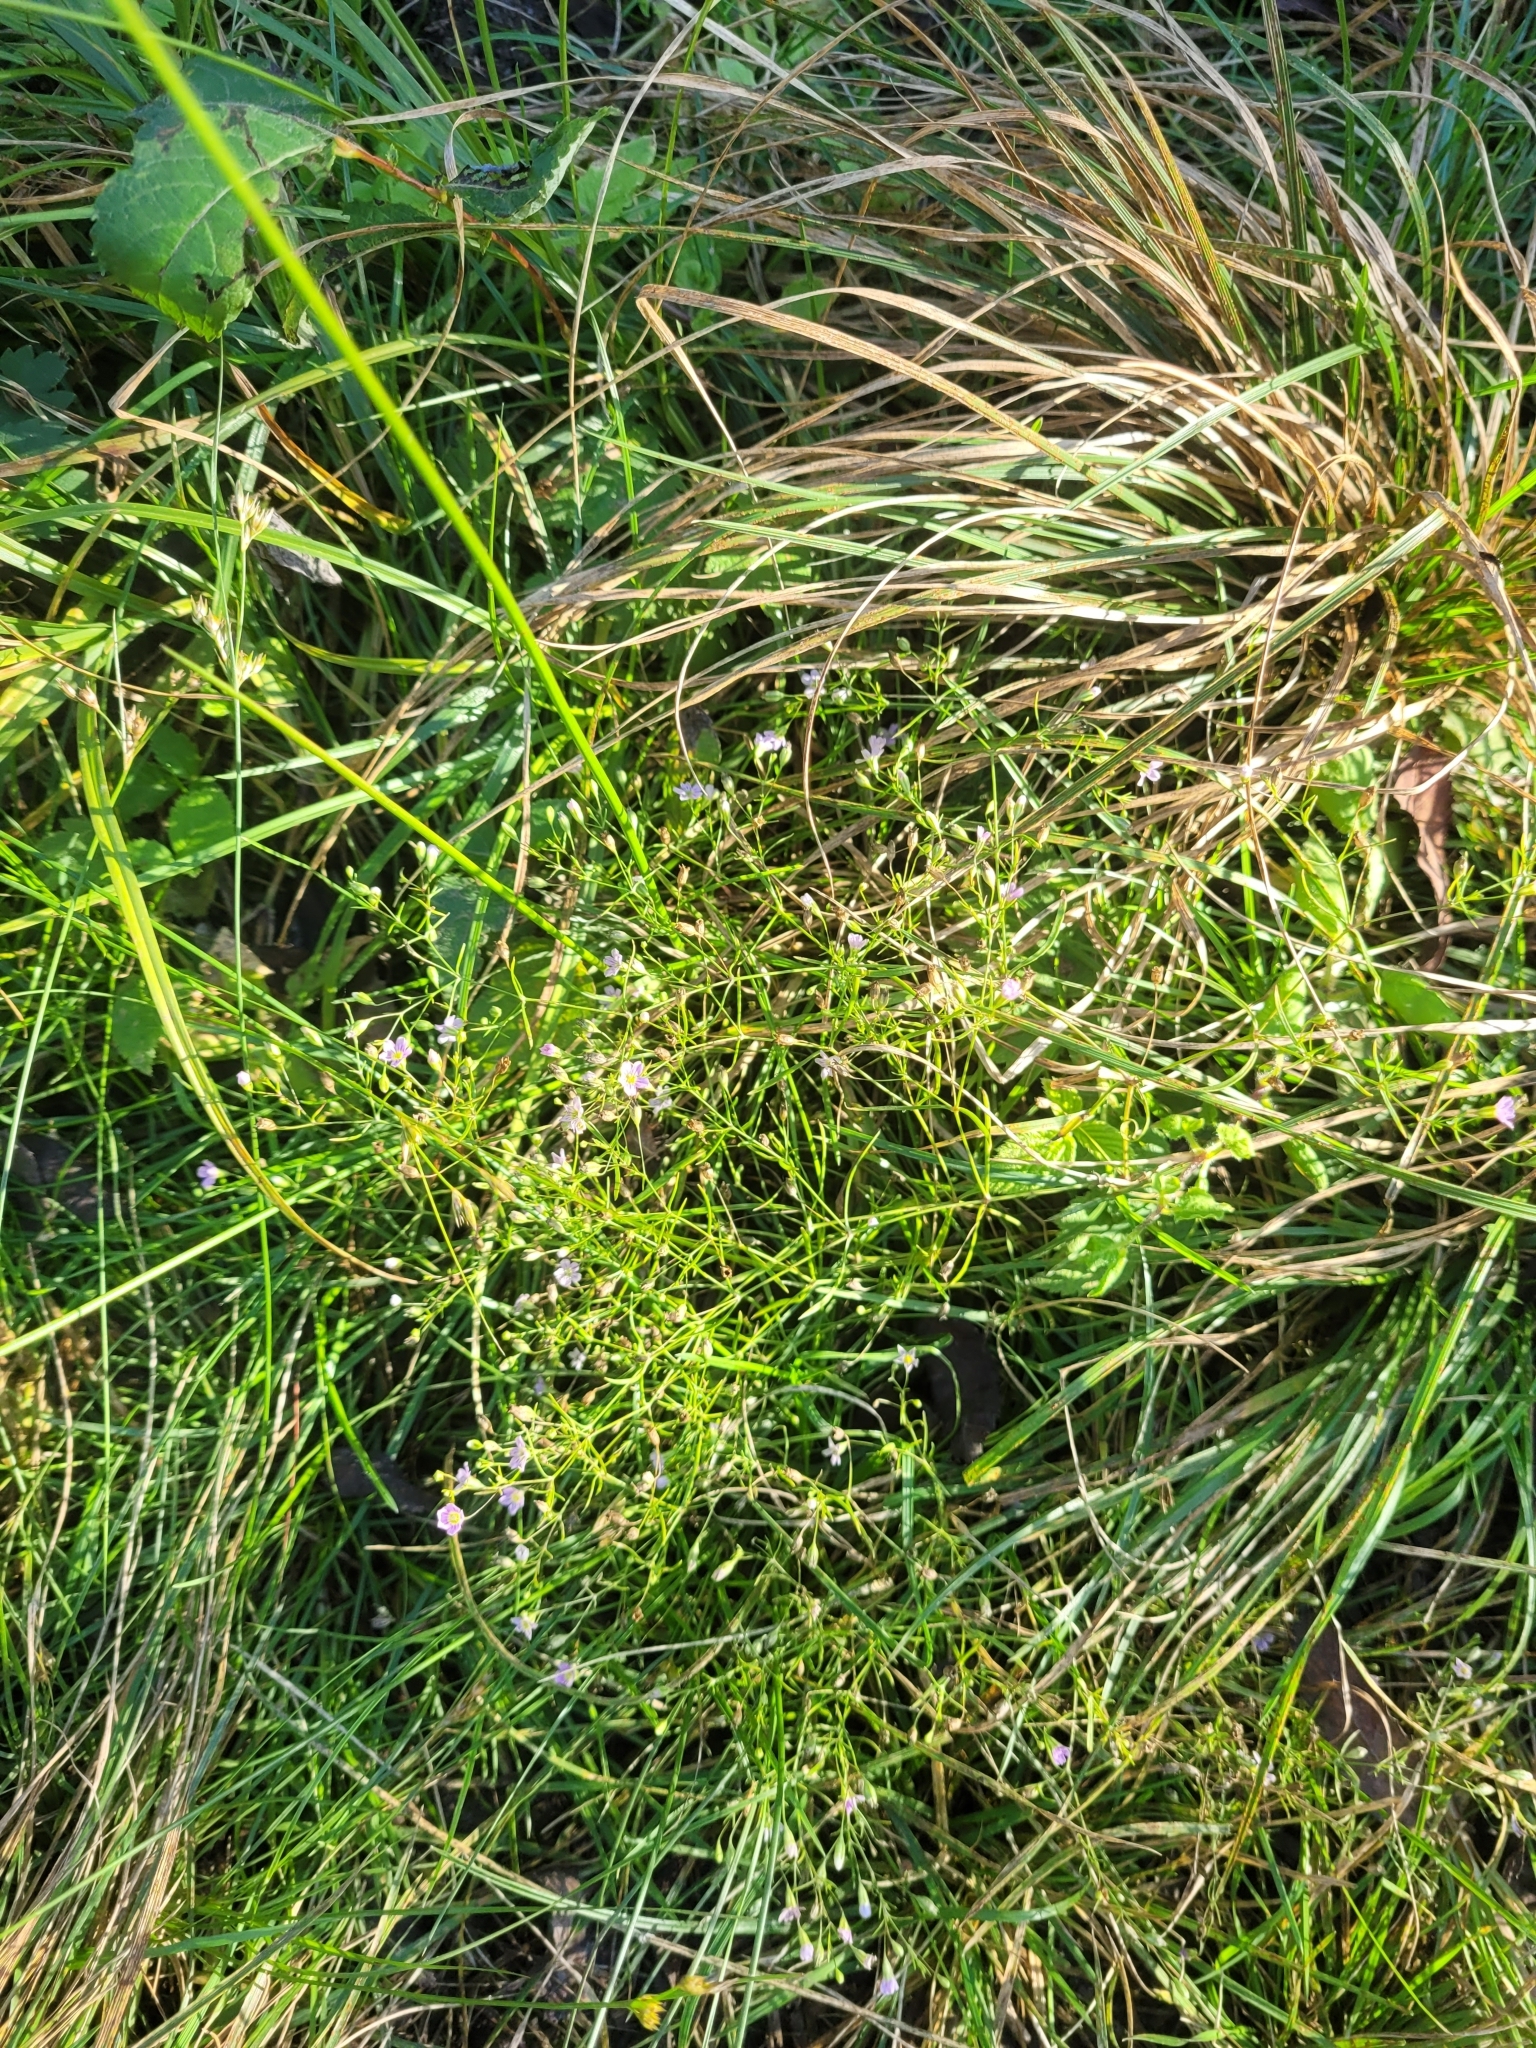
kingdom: Plantae
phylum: Tracheophyta
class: Magnoliopsida
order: Caryophyllales
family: Caryophyllaceae
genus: Psammophiliella
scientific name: Psammophiliella muralis
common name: Cushion baby's-breath
